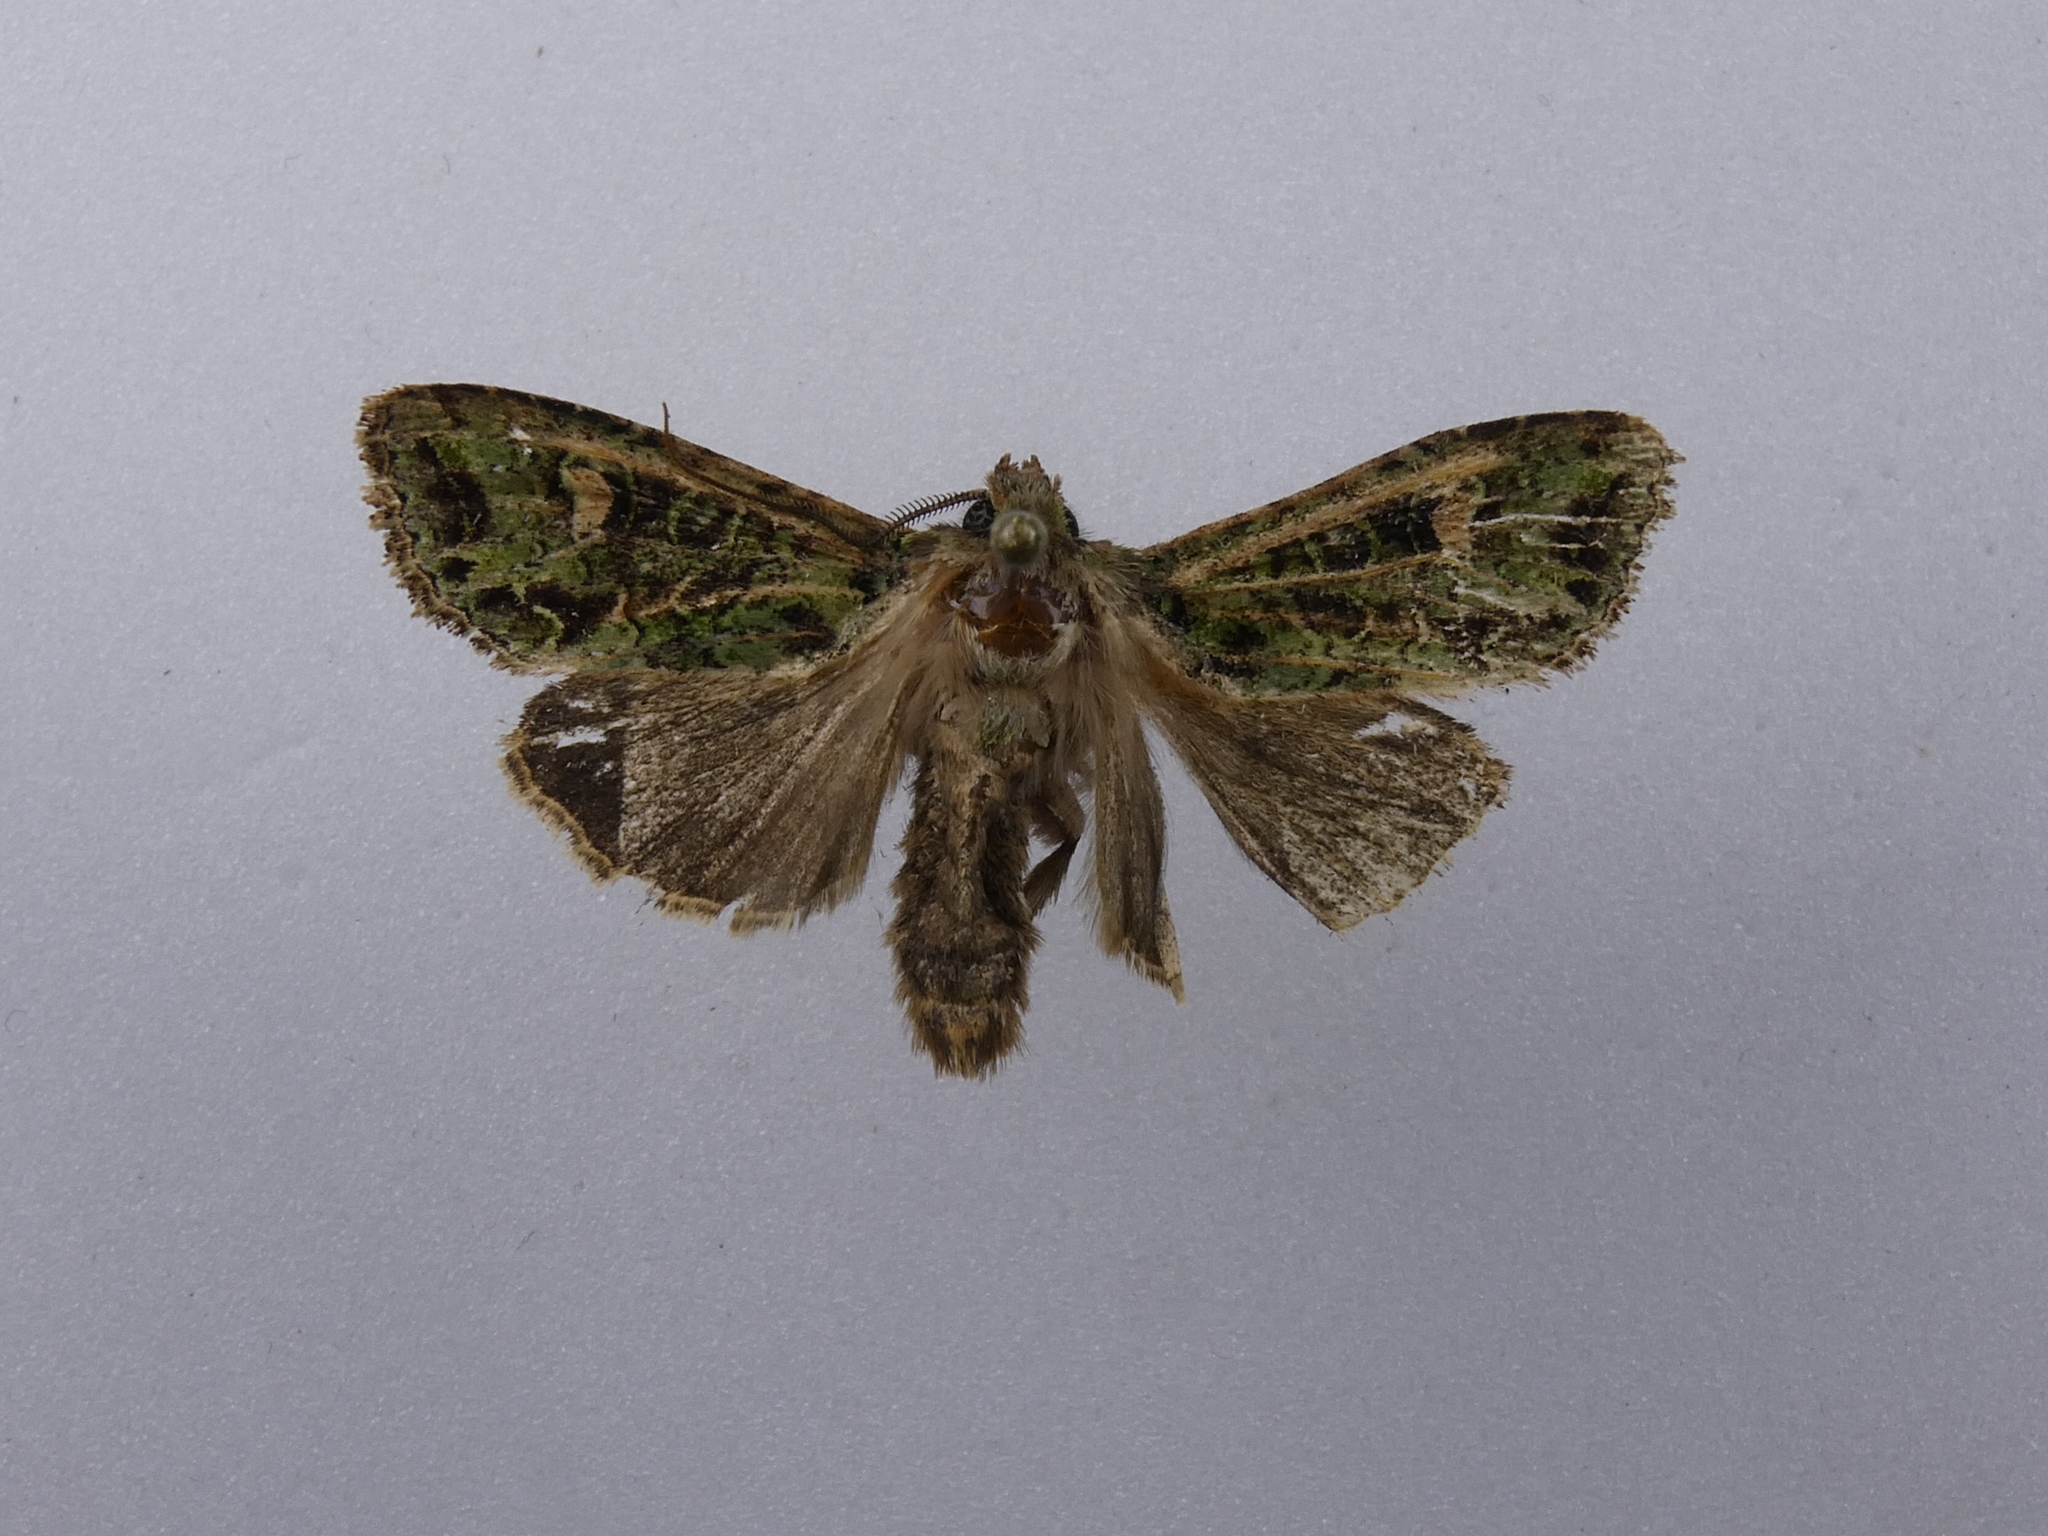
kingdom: Animalia
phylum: Arthropoda
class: Insecta
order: Lepidoptera
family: Noctuidae
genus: Ichneutica
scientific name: Ichneutica
